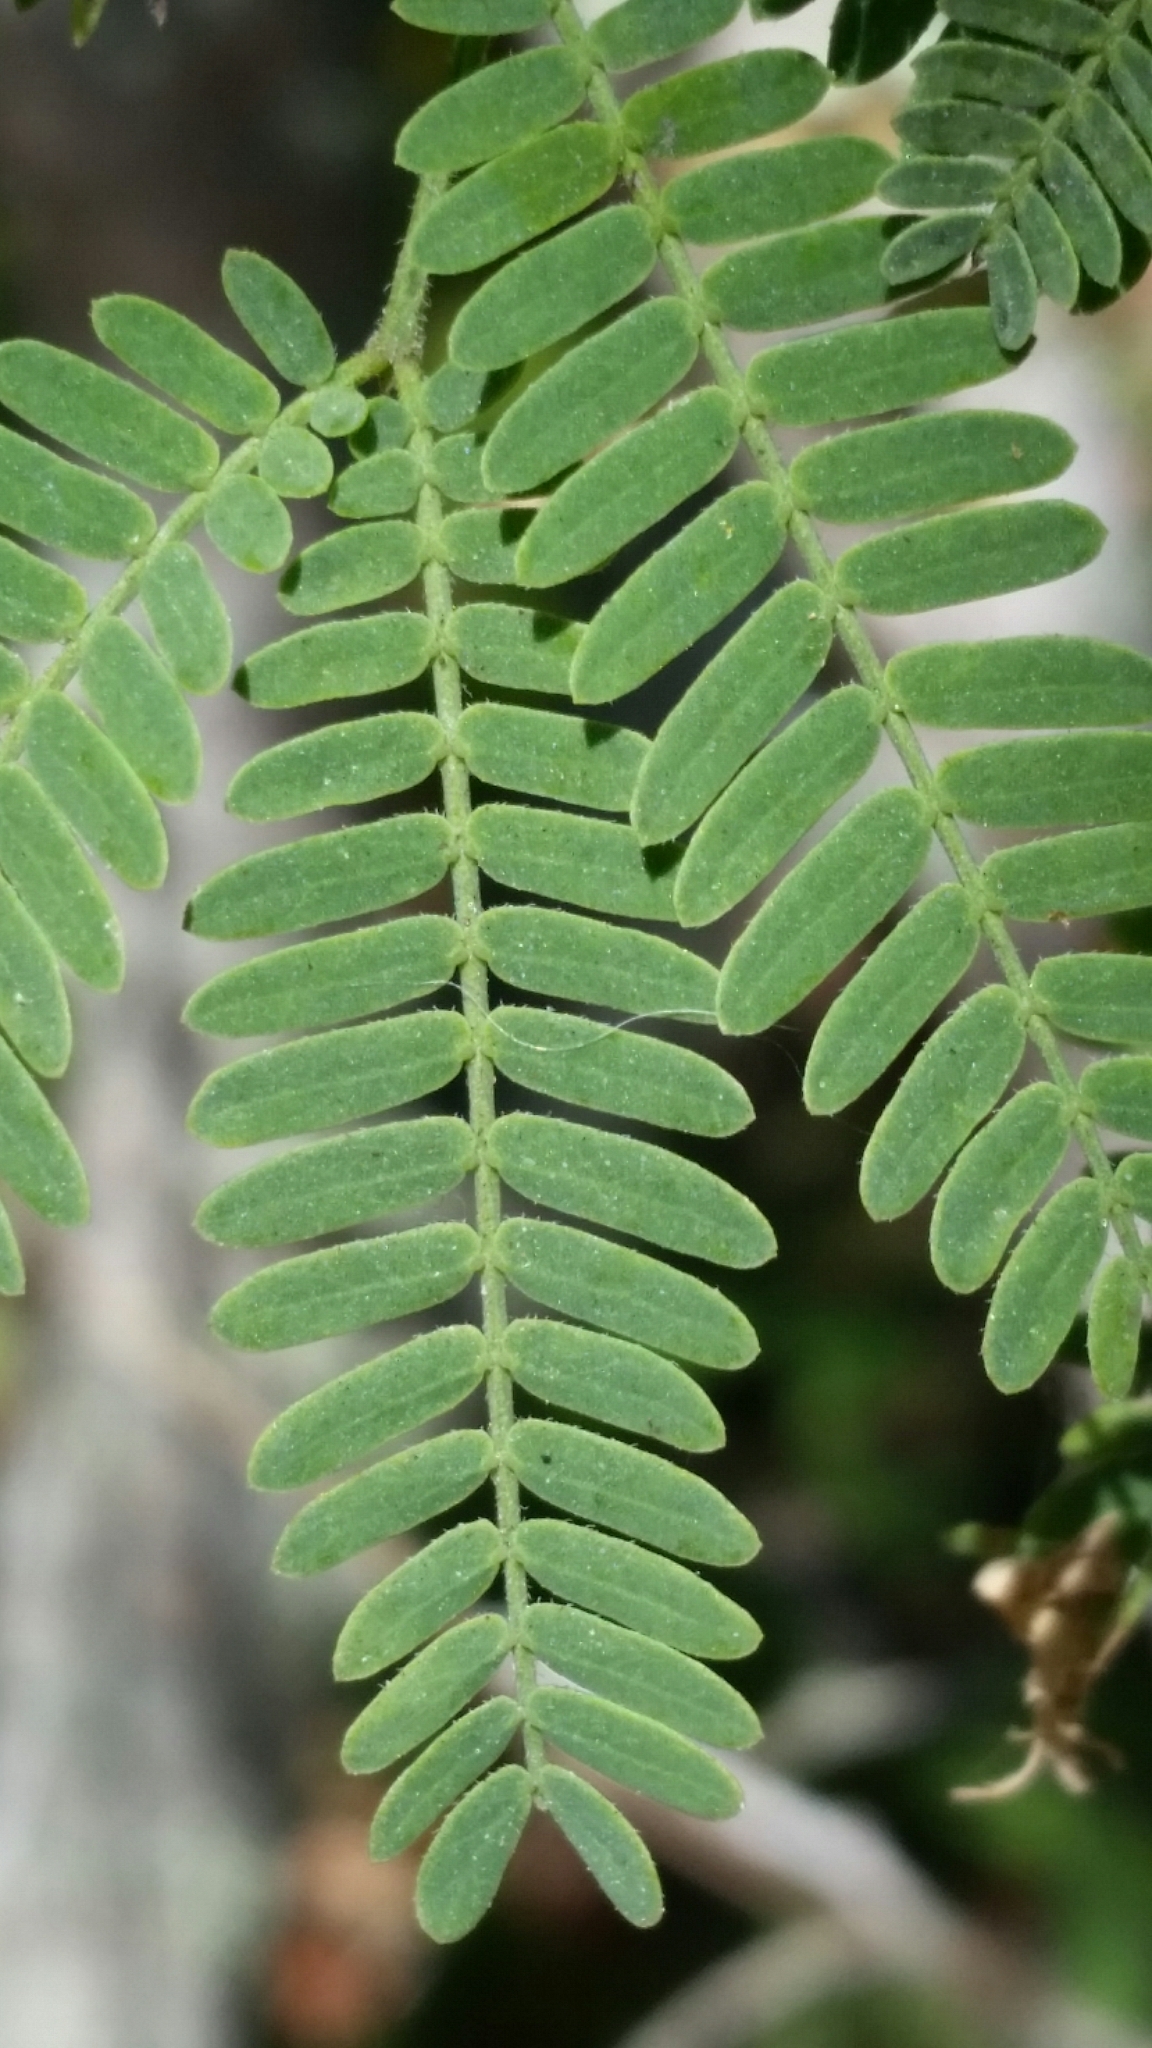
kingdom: Plantae
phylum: Tracheophyta
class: Magnoliopsida
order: Fabales
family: Fabaceae
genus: Vachellia
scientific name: Vachellia farnesiana
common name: Sweet acacia
